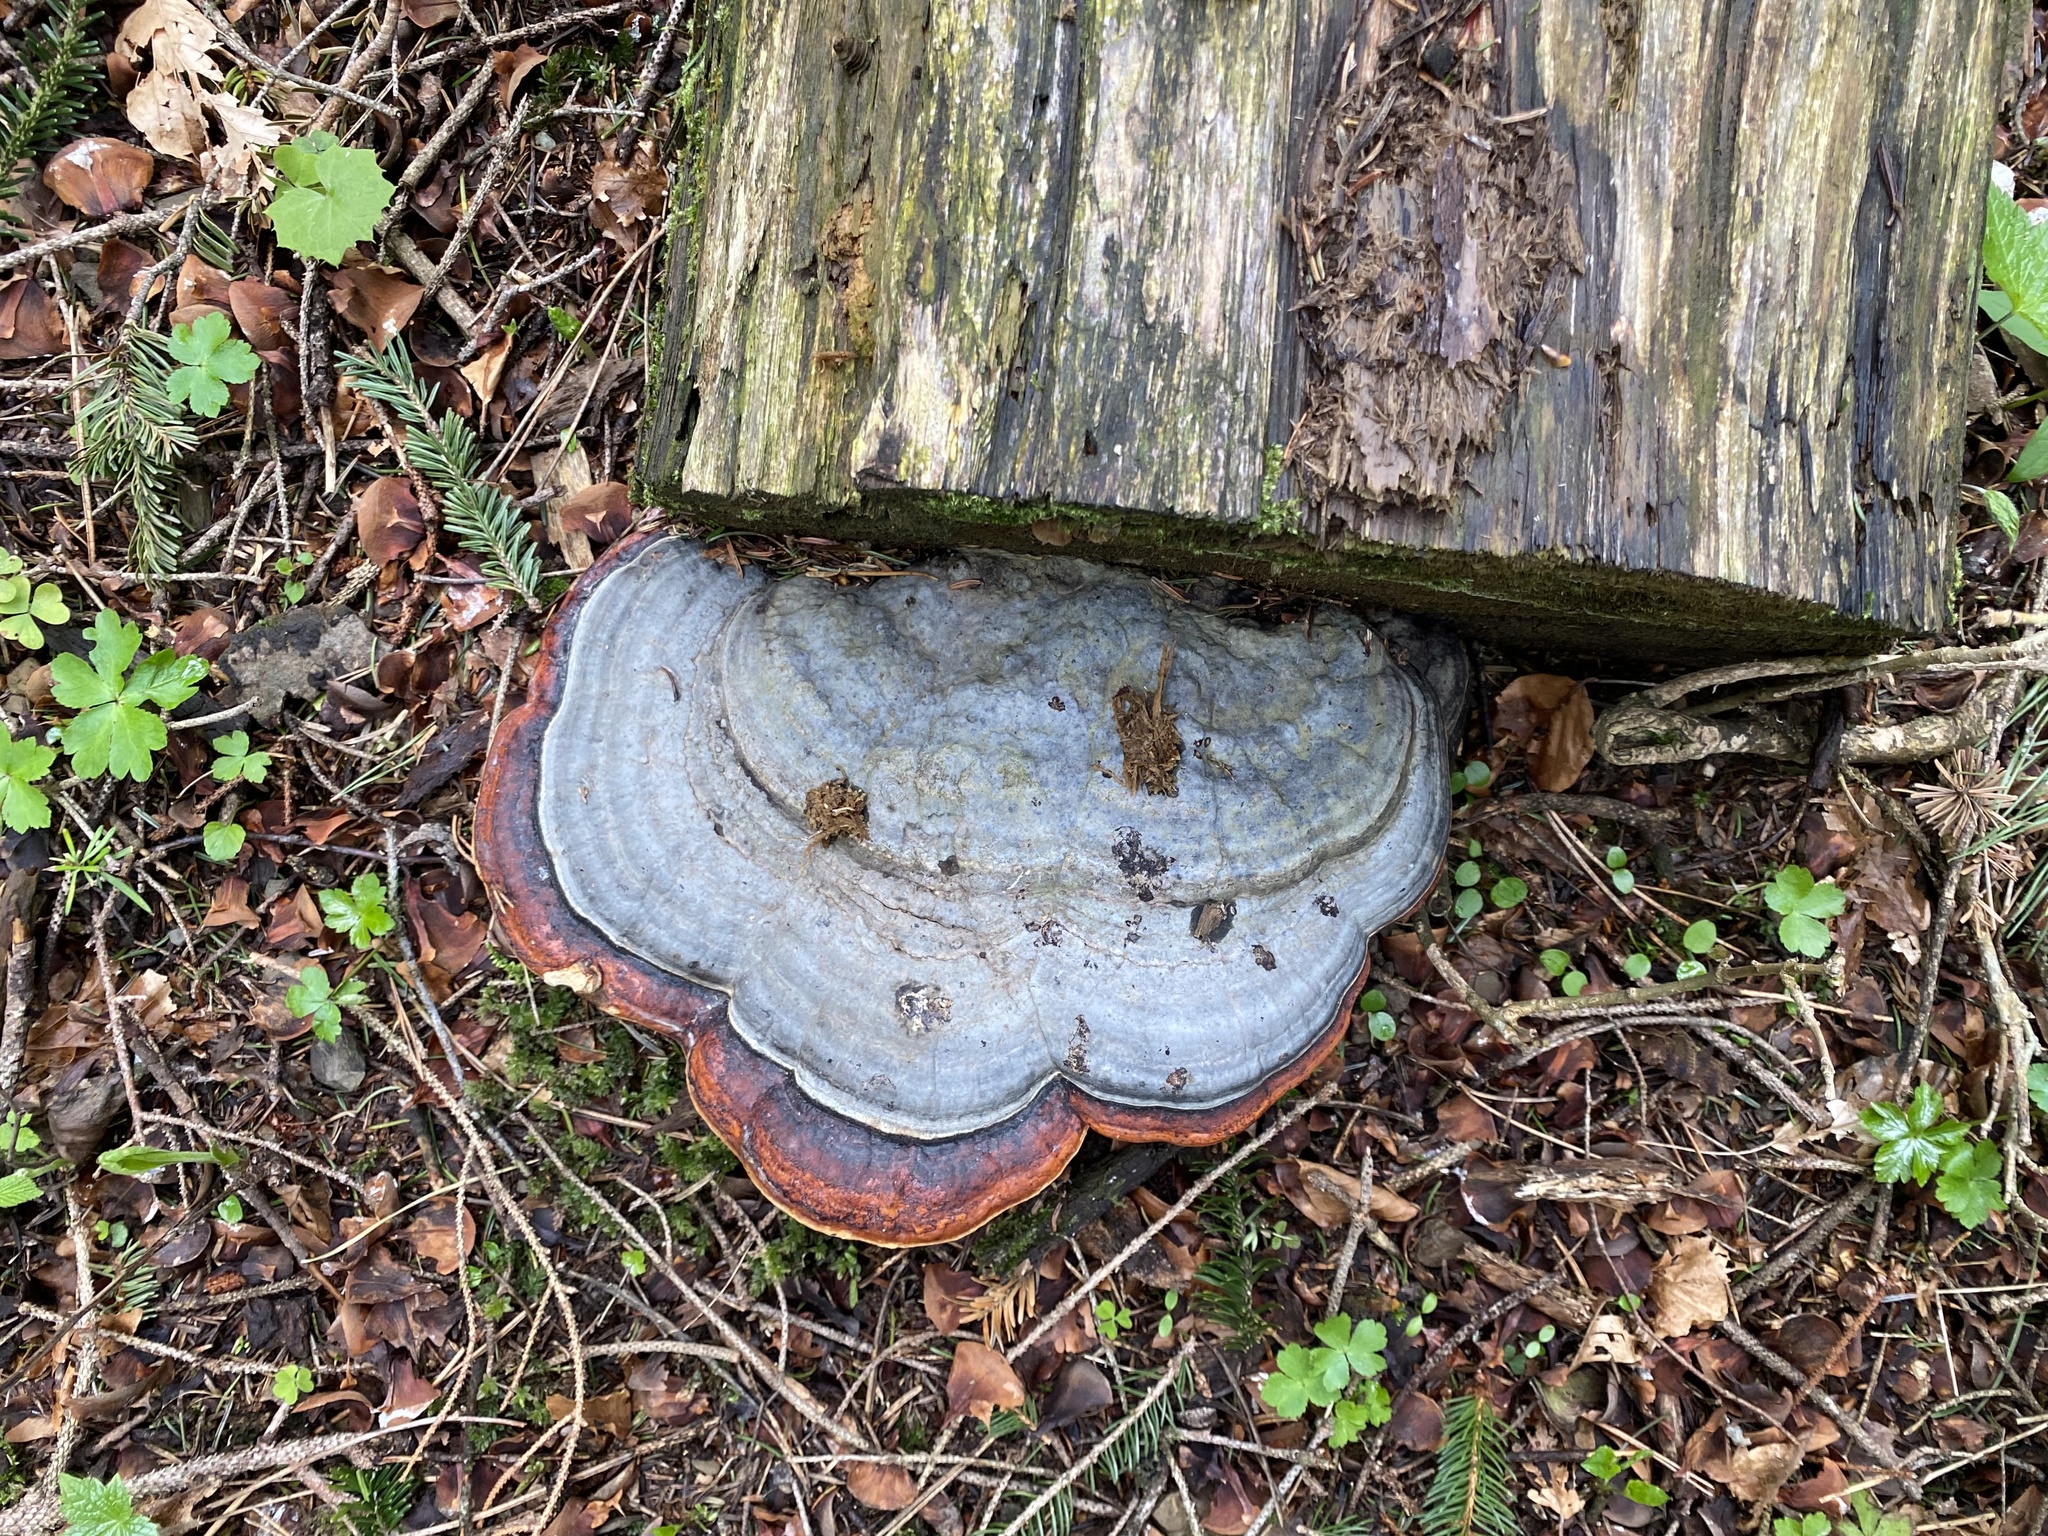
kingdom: Fungi
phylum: Basidiomycota
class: Agaricomycetes
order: Polyporales
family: Fomitopsidaceae
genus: Fomitopsis
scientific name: Fomitopsis pinicola
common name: Red-belted bracket
